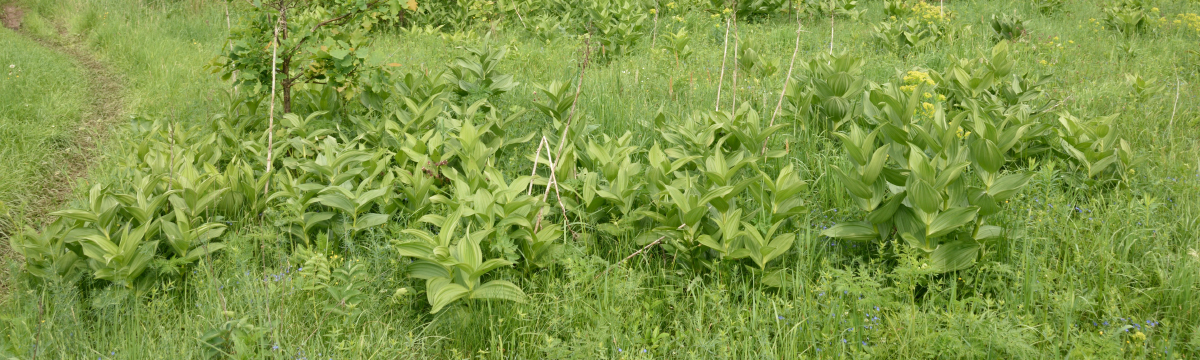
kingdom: Plantae
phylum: Tracheophyta
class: Liliopsida
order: Liliales
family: Melanthiaceae
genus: Veratrum
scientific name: Veratrum lobelianum
